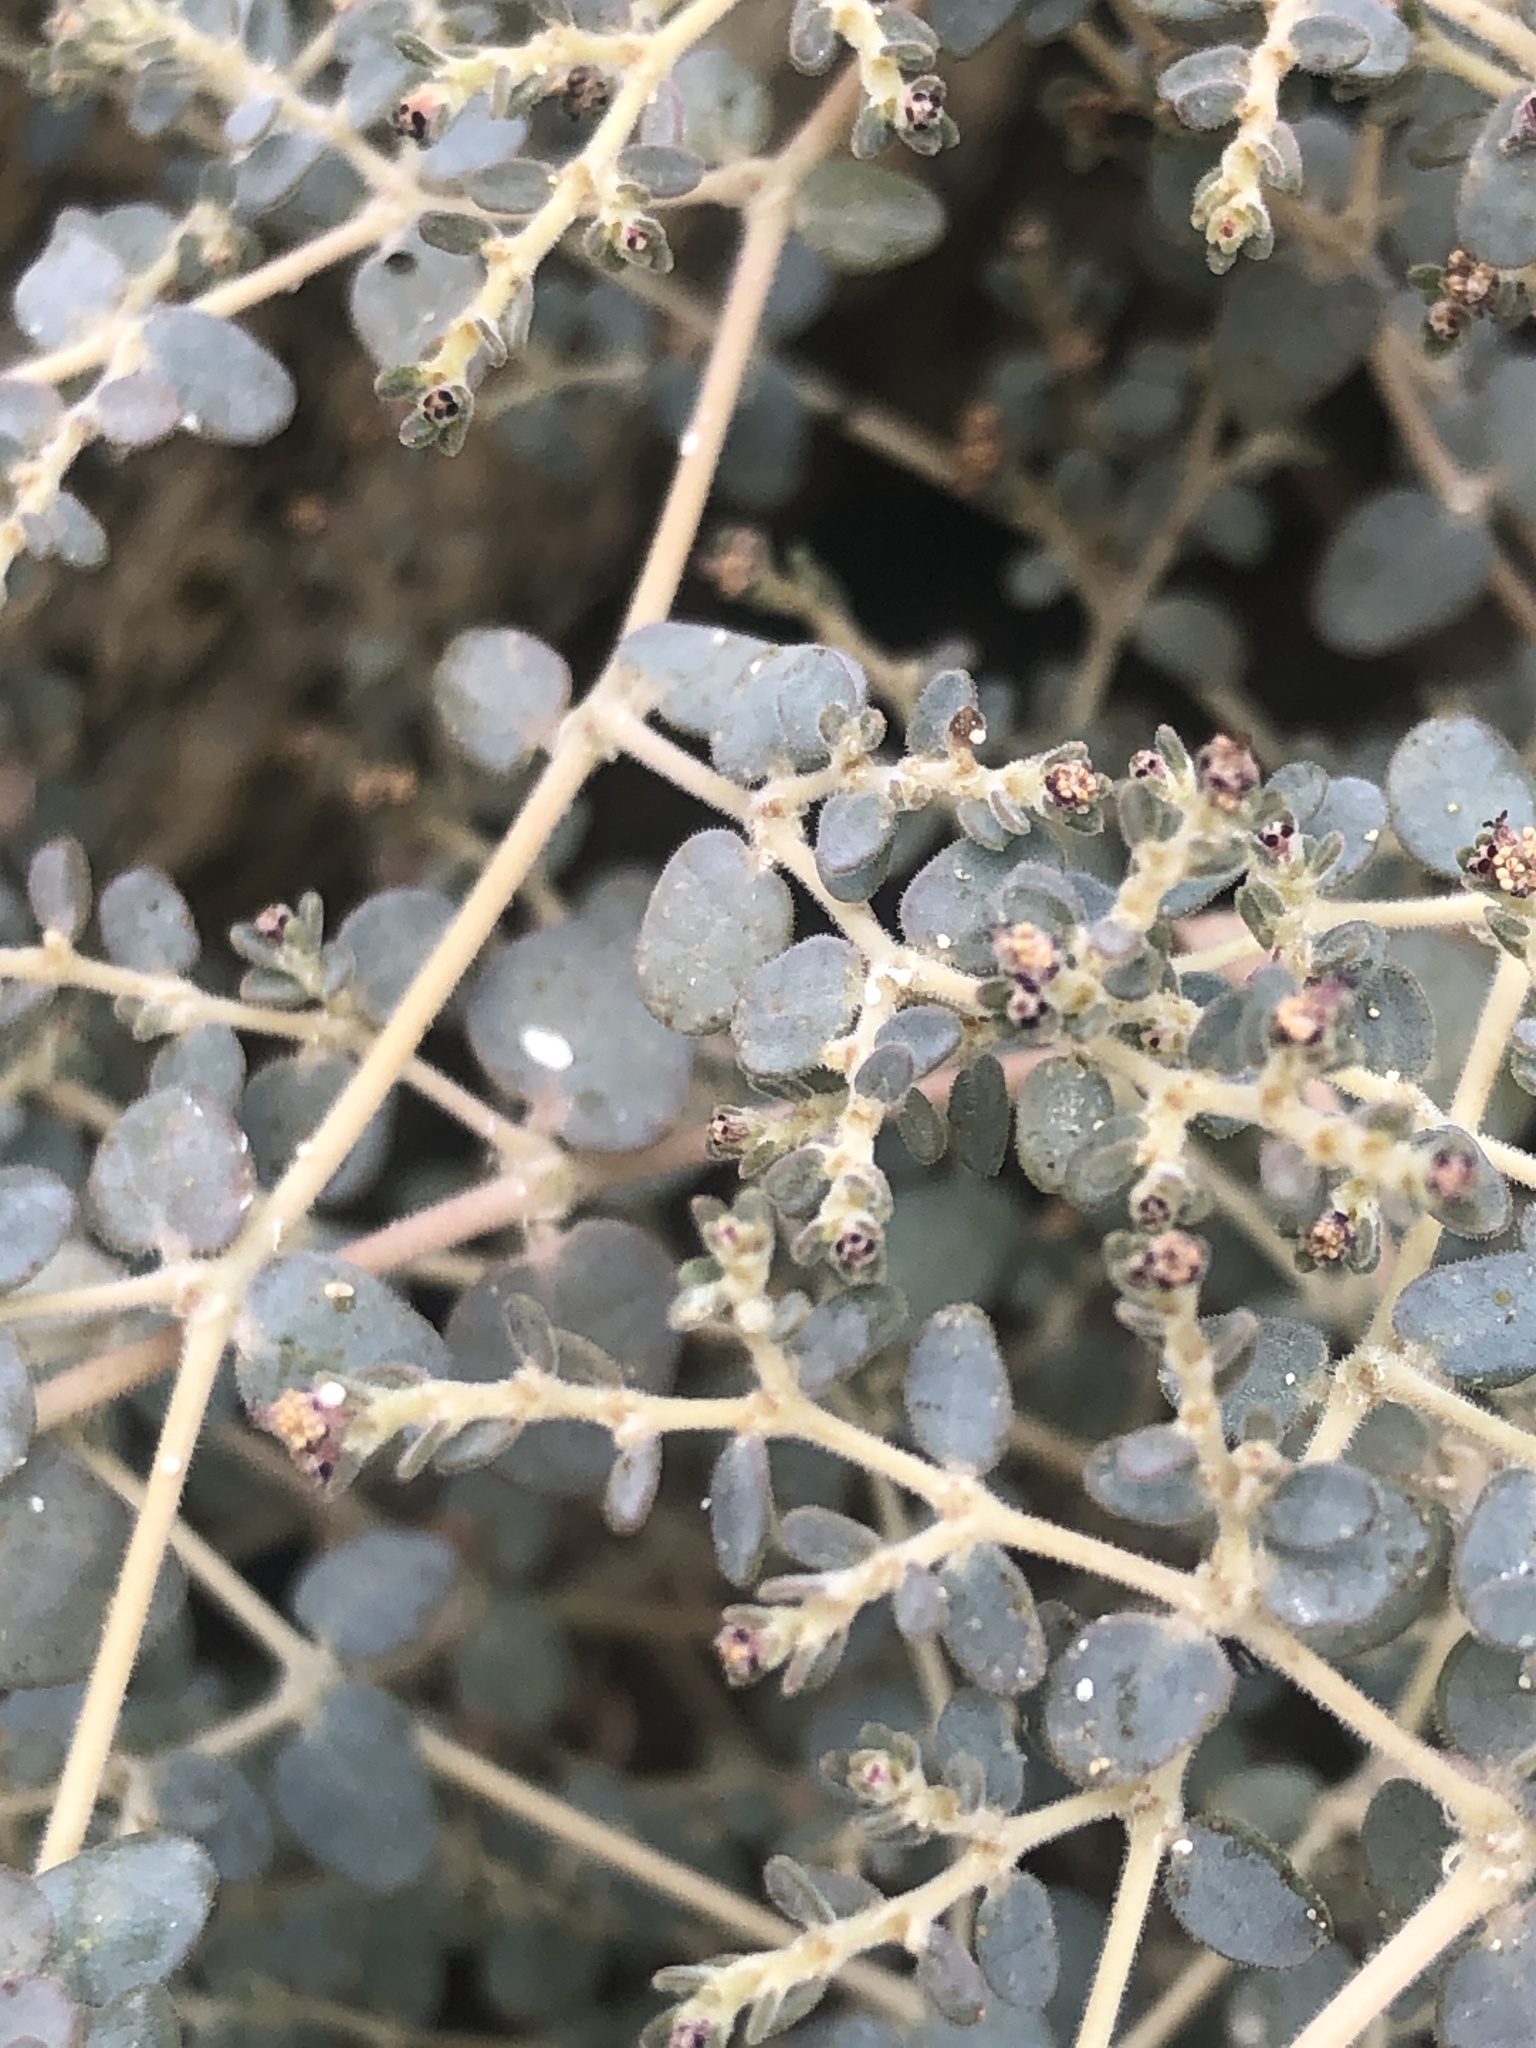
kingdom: Plantae
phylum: Tracheophyta
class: Magnoliopsida
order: Malpighiales
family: Euphorbiaceae
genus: Euphorbia
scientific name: Euphorbia polycarpa
